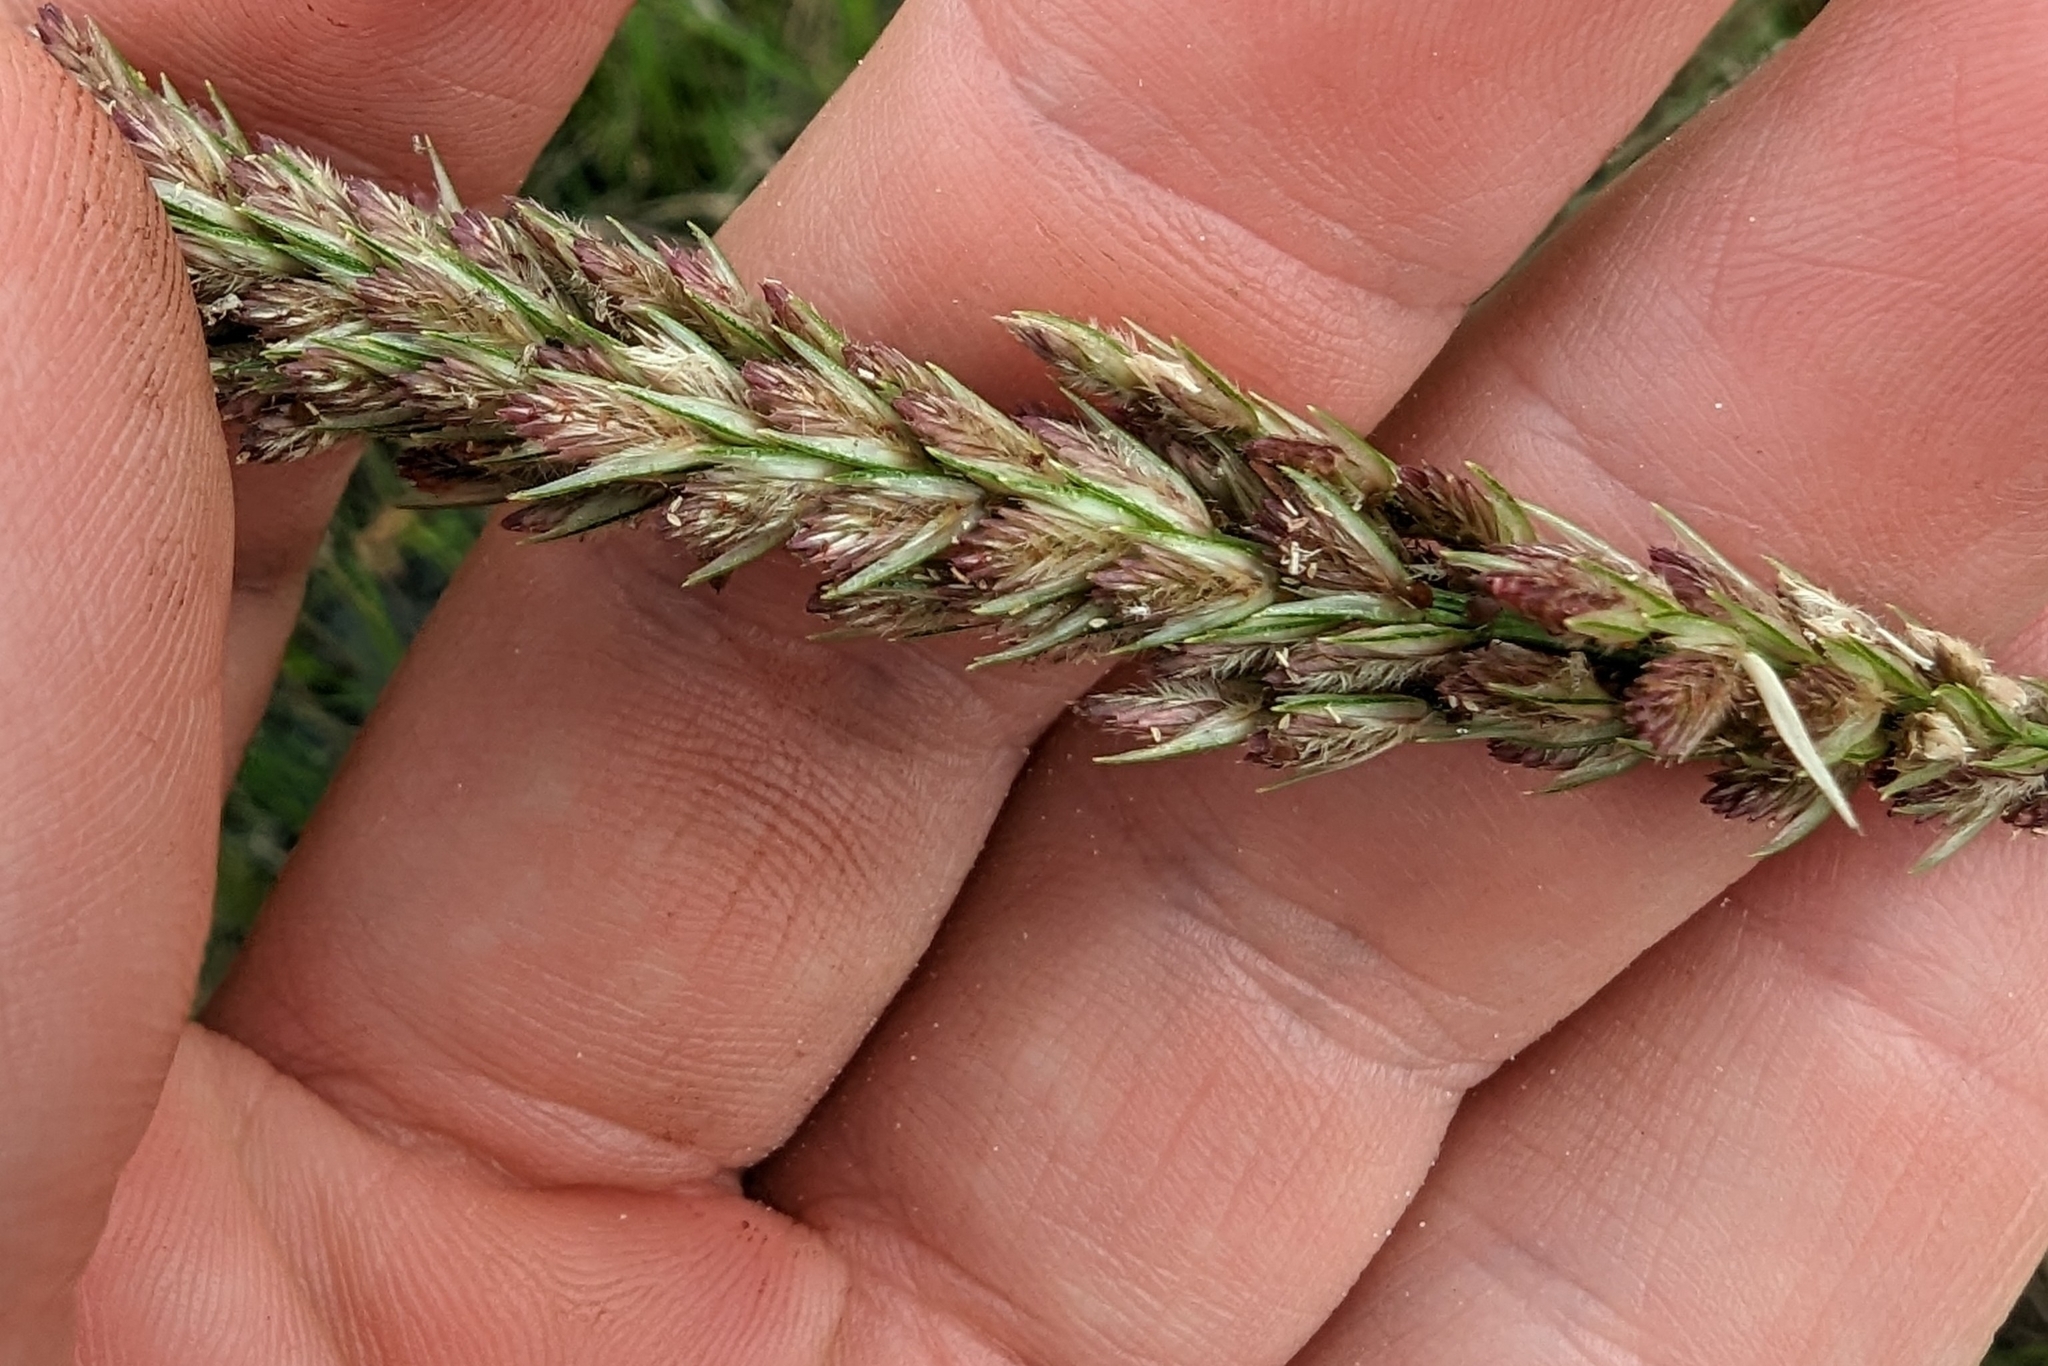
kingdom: Plantae
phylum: Tracheophyta
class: Liliopsida
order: Poales
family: Poaceae
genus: Tridens
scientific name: Tridens strictus
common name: Long-spike tridens
